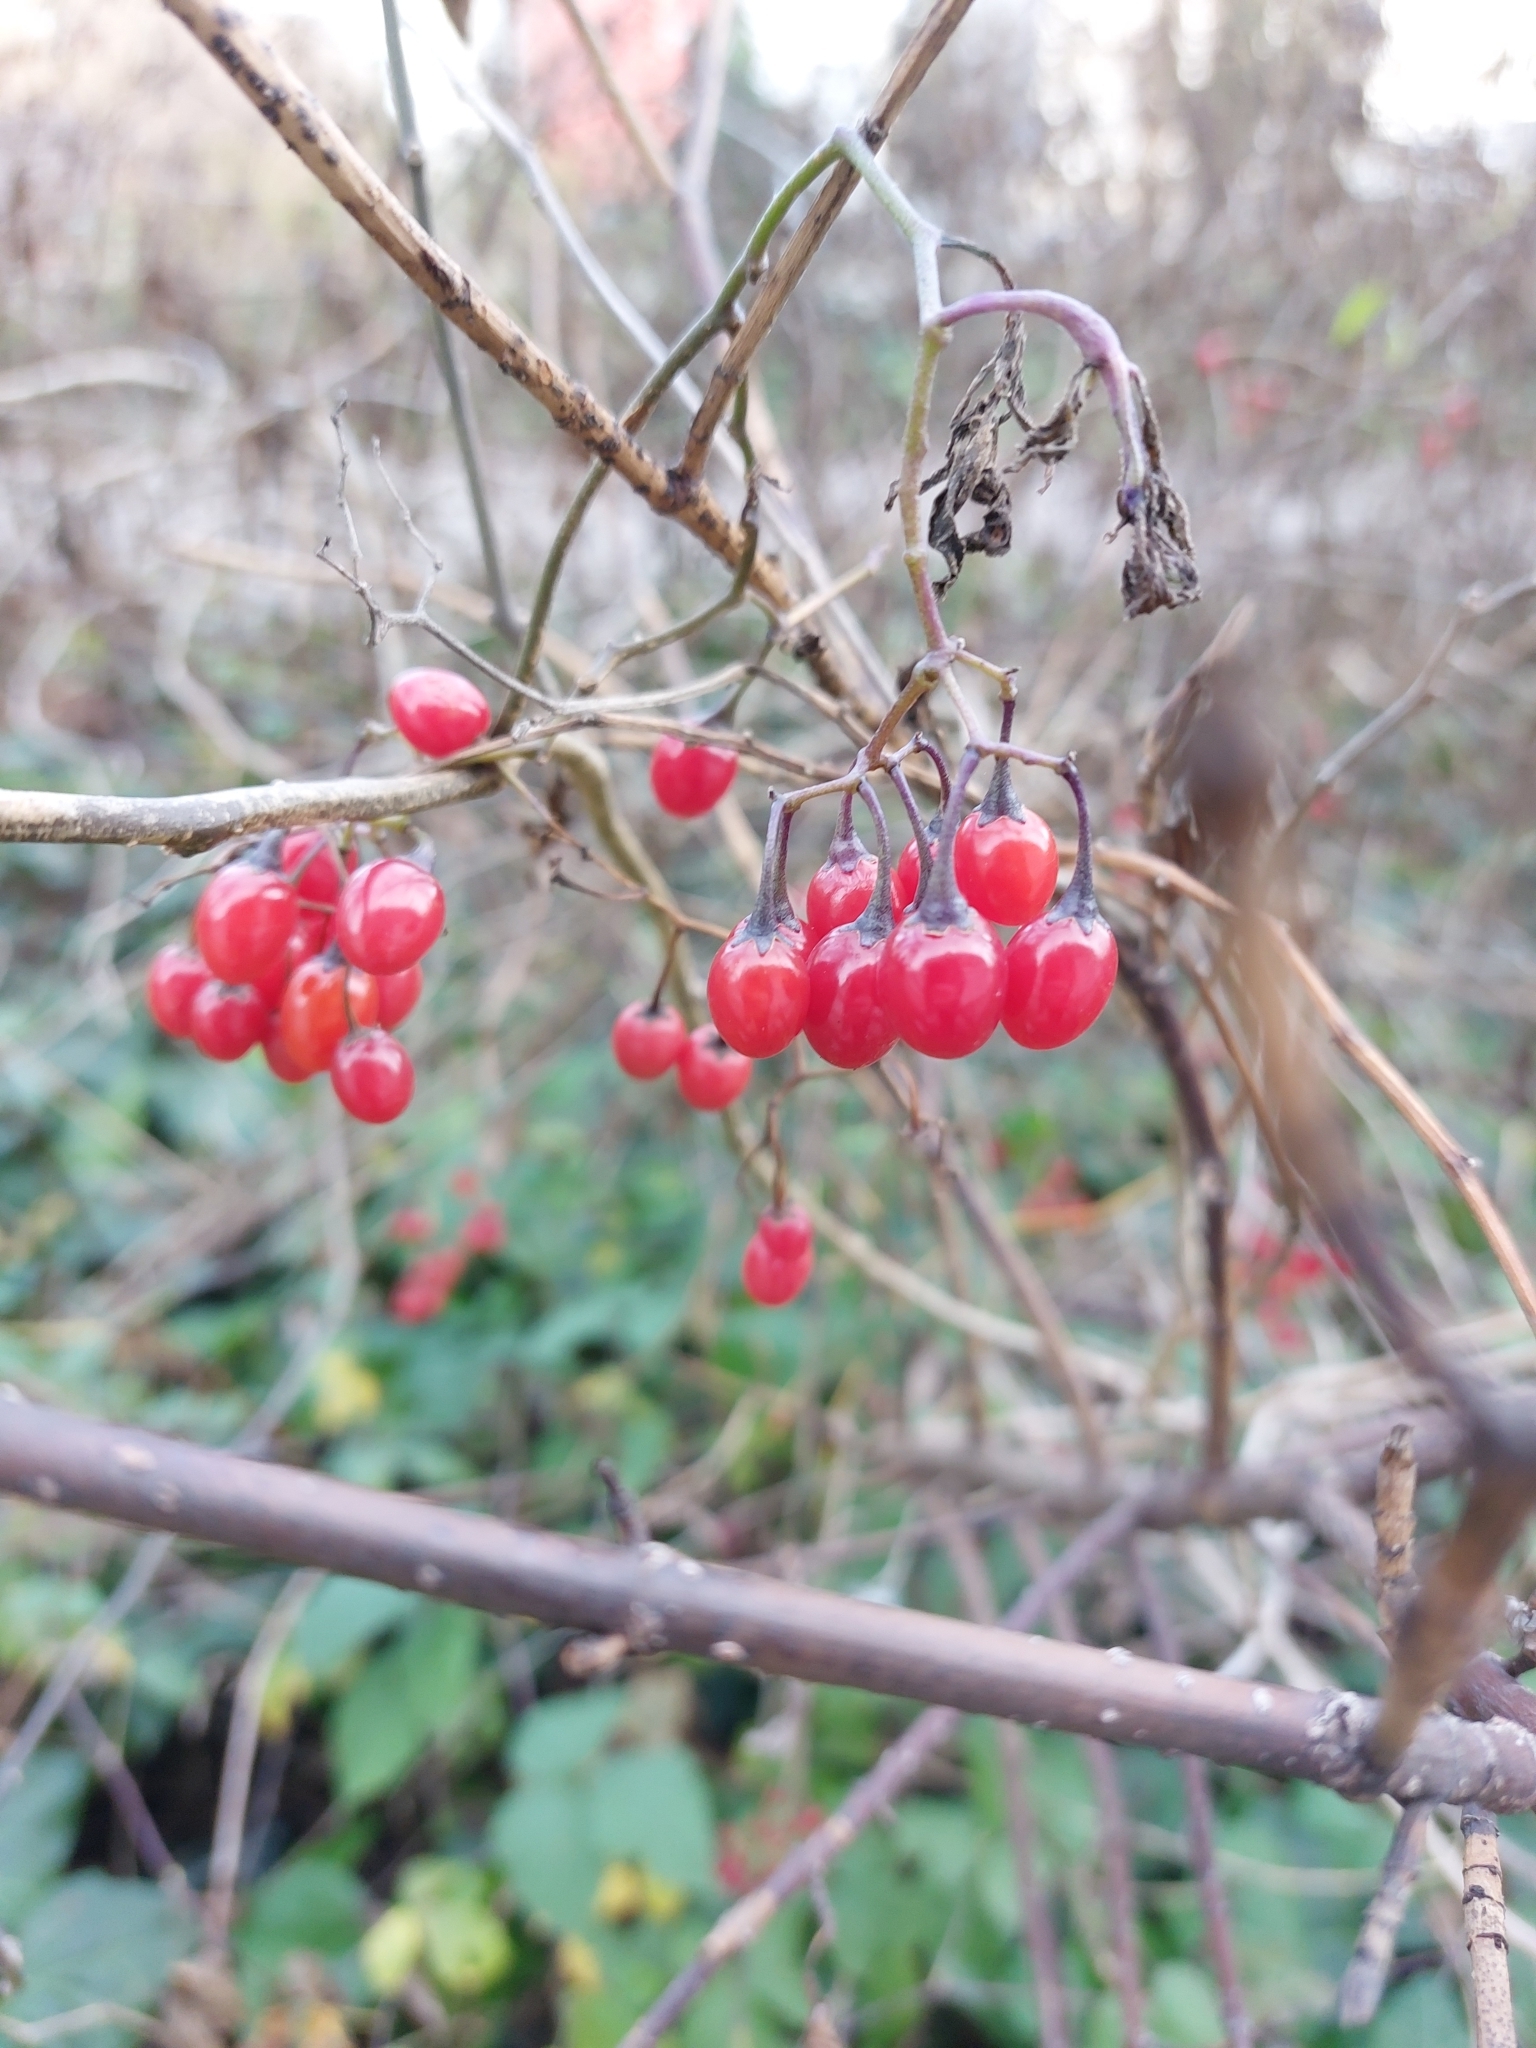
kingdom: Plantae
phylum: Tracheophyta
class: Magnoliopsida
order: Solanales
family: Solanaceae
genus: Solanum
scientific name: Solanum dulcamara
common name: Climbing nightshade
